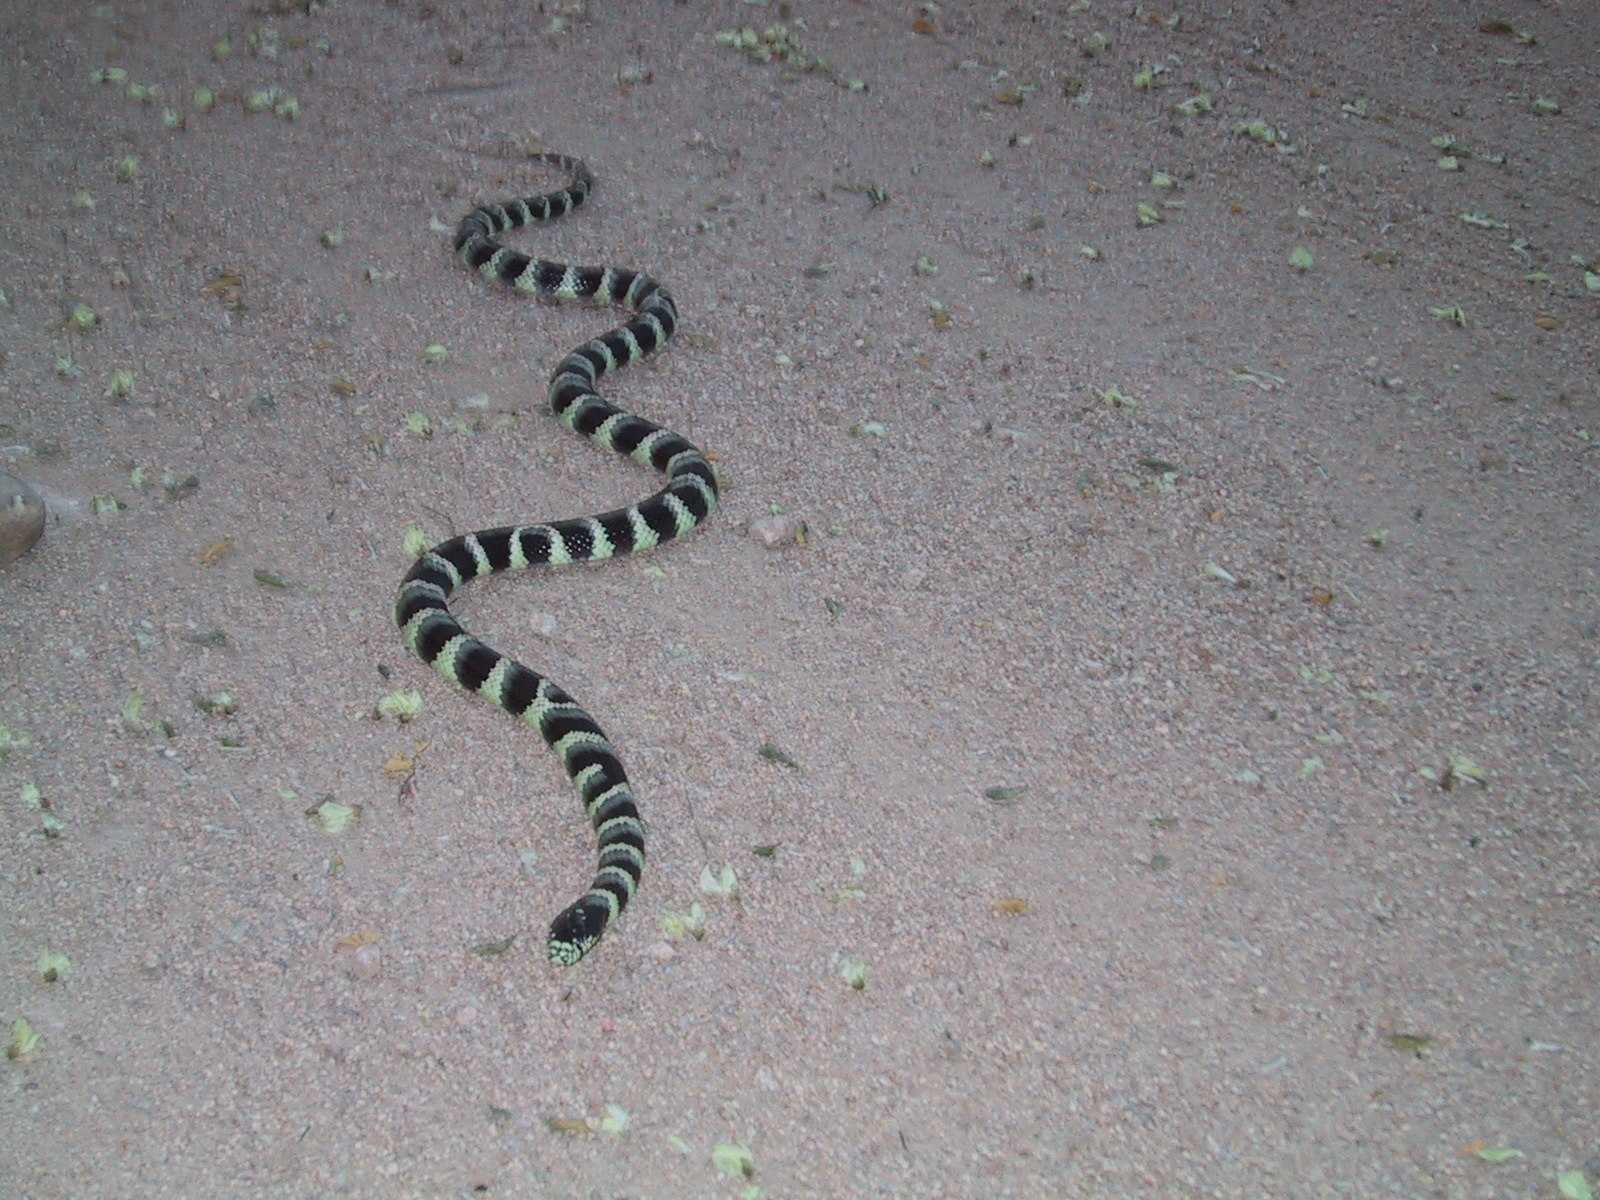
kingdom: Animalia
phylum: Chordata
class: Squamata
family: Colubridae
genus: Lampropeltis
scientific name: Lampropeltis californiae
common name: California kingsnake
